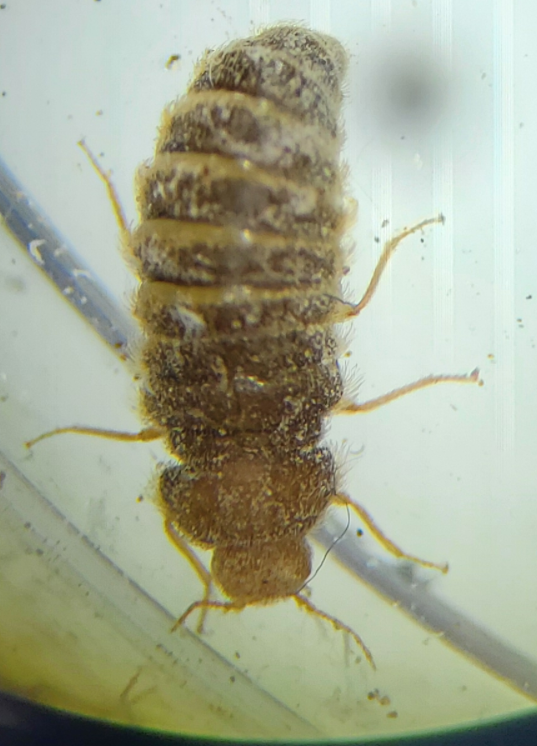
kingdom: Animalia
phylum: Arthropoda
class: Insecta
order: Coleoptera
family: Dermestidae
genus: Thylodrias
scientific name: Thylodrias contractus
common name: Odd beetle
